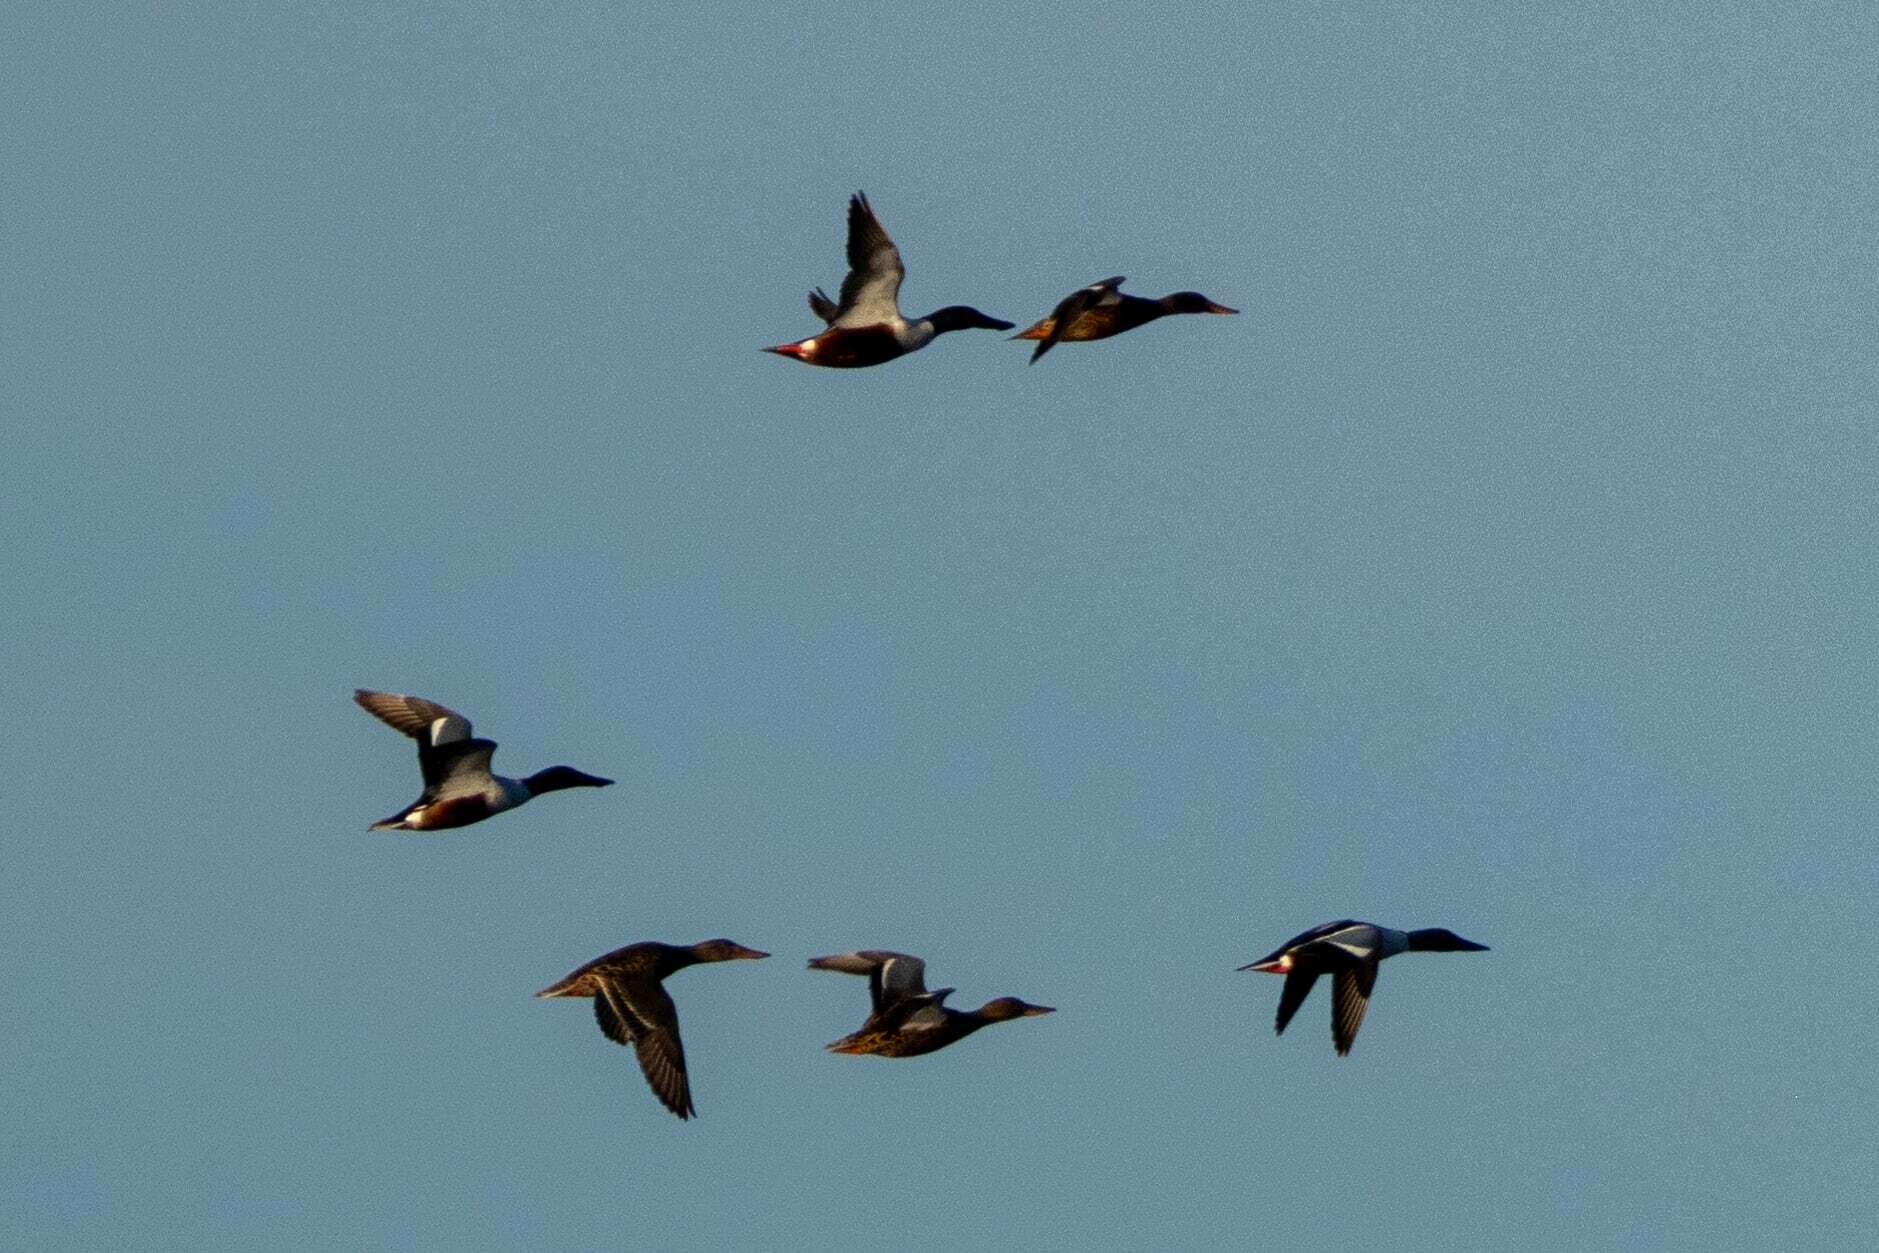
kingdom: Animalia
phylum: Chordata
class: Aves
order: Anseriformes
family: Anatidae
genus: Spatula
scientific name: Spatula clypeata
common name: Northern shoveler
